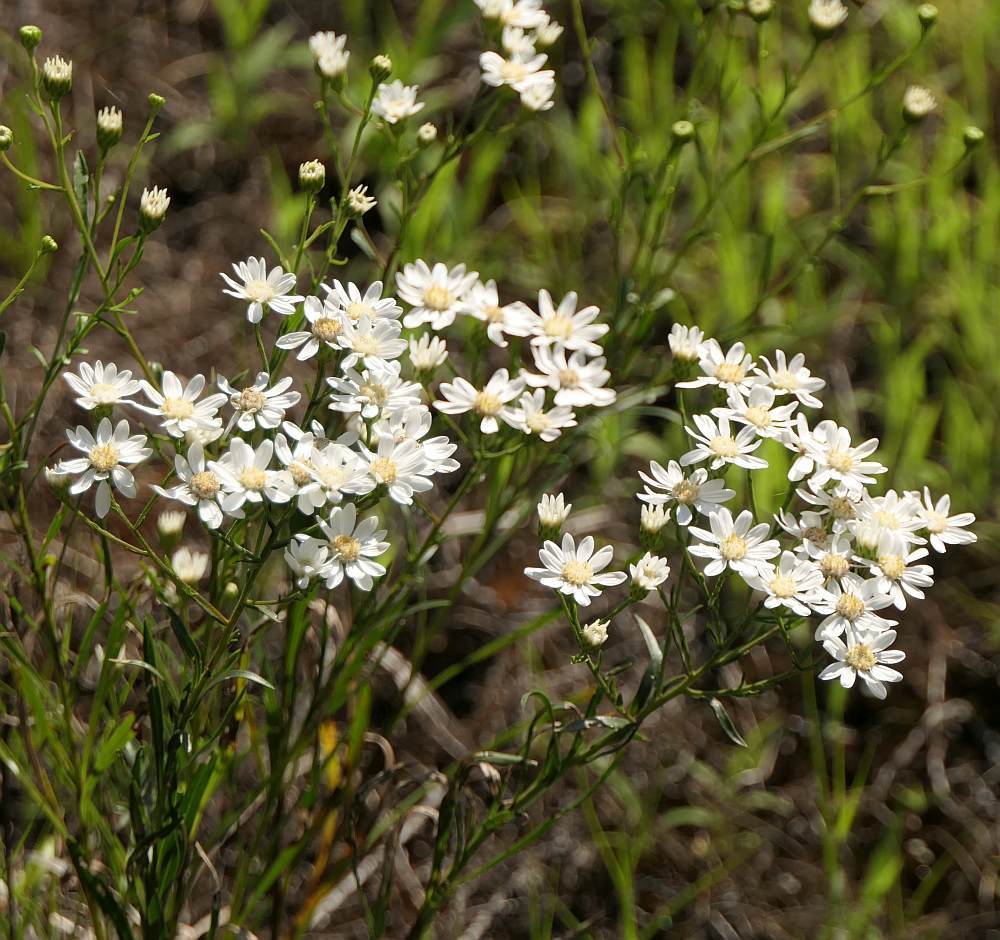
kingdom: Plantae
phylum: Tracheophyta
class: Magnoliopsida
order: Asterales
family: Asteraceae
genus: Solidago
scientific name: Solidago ptarmicoides
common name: White flat-top goldenrod
